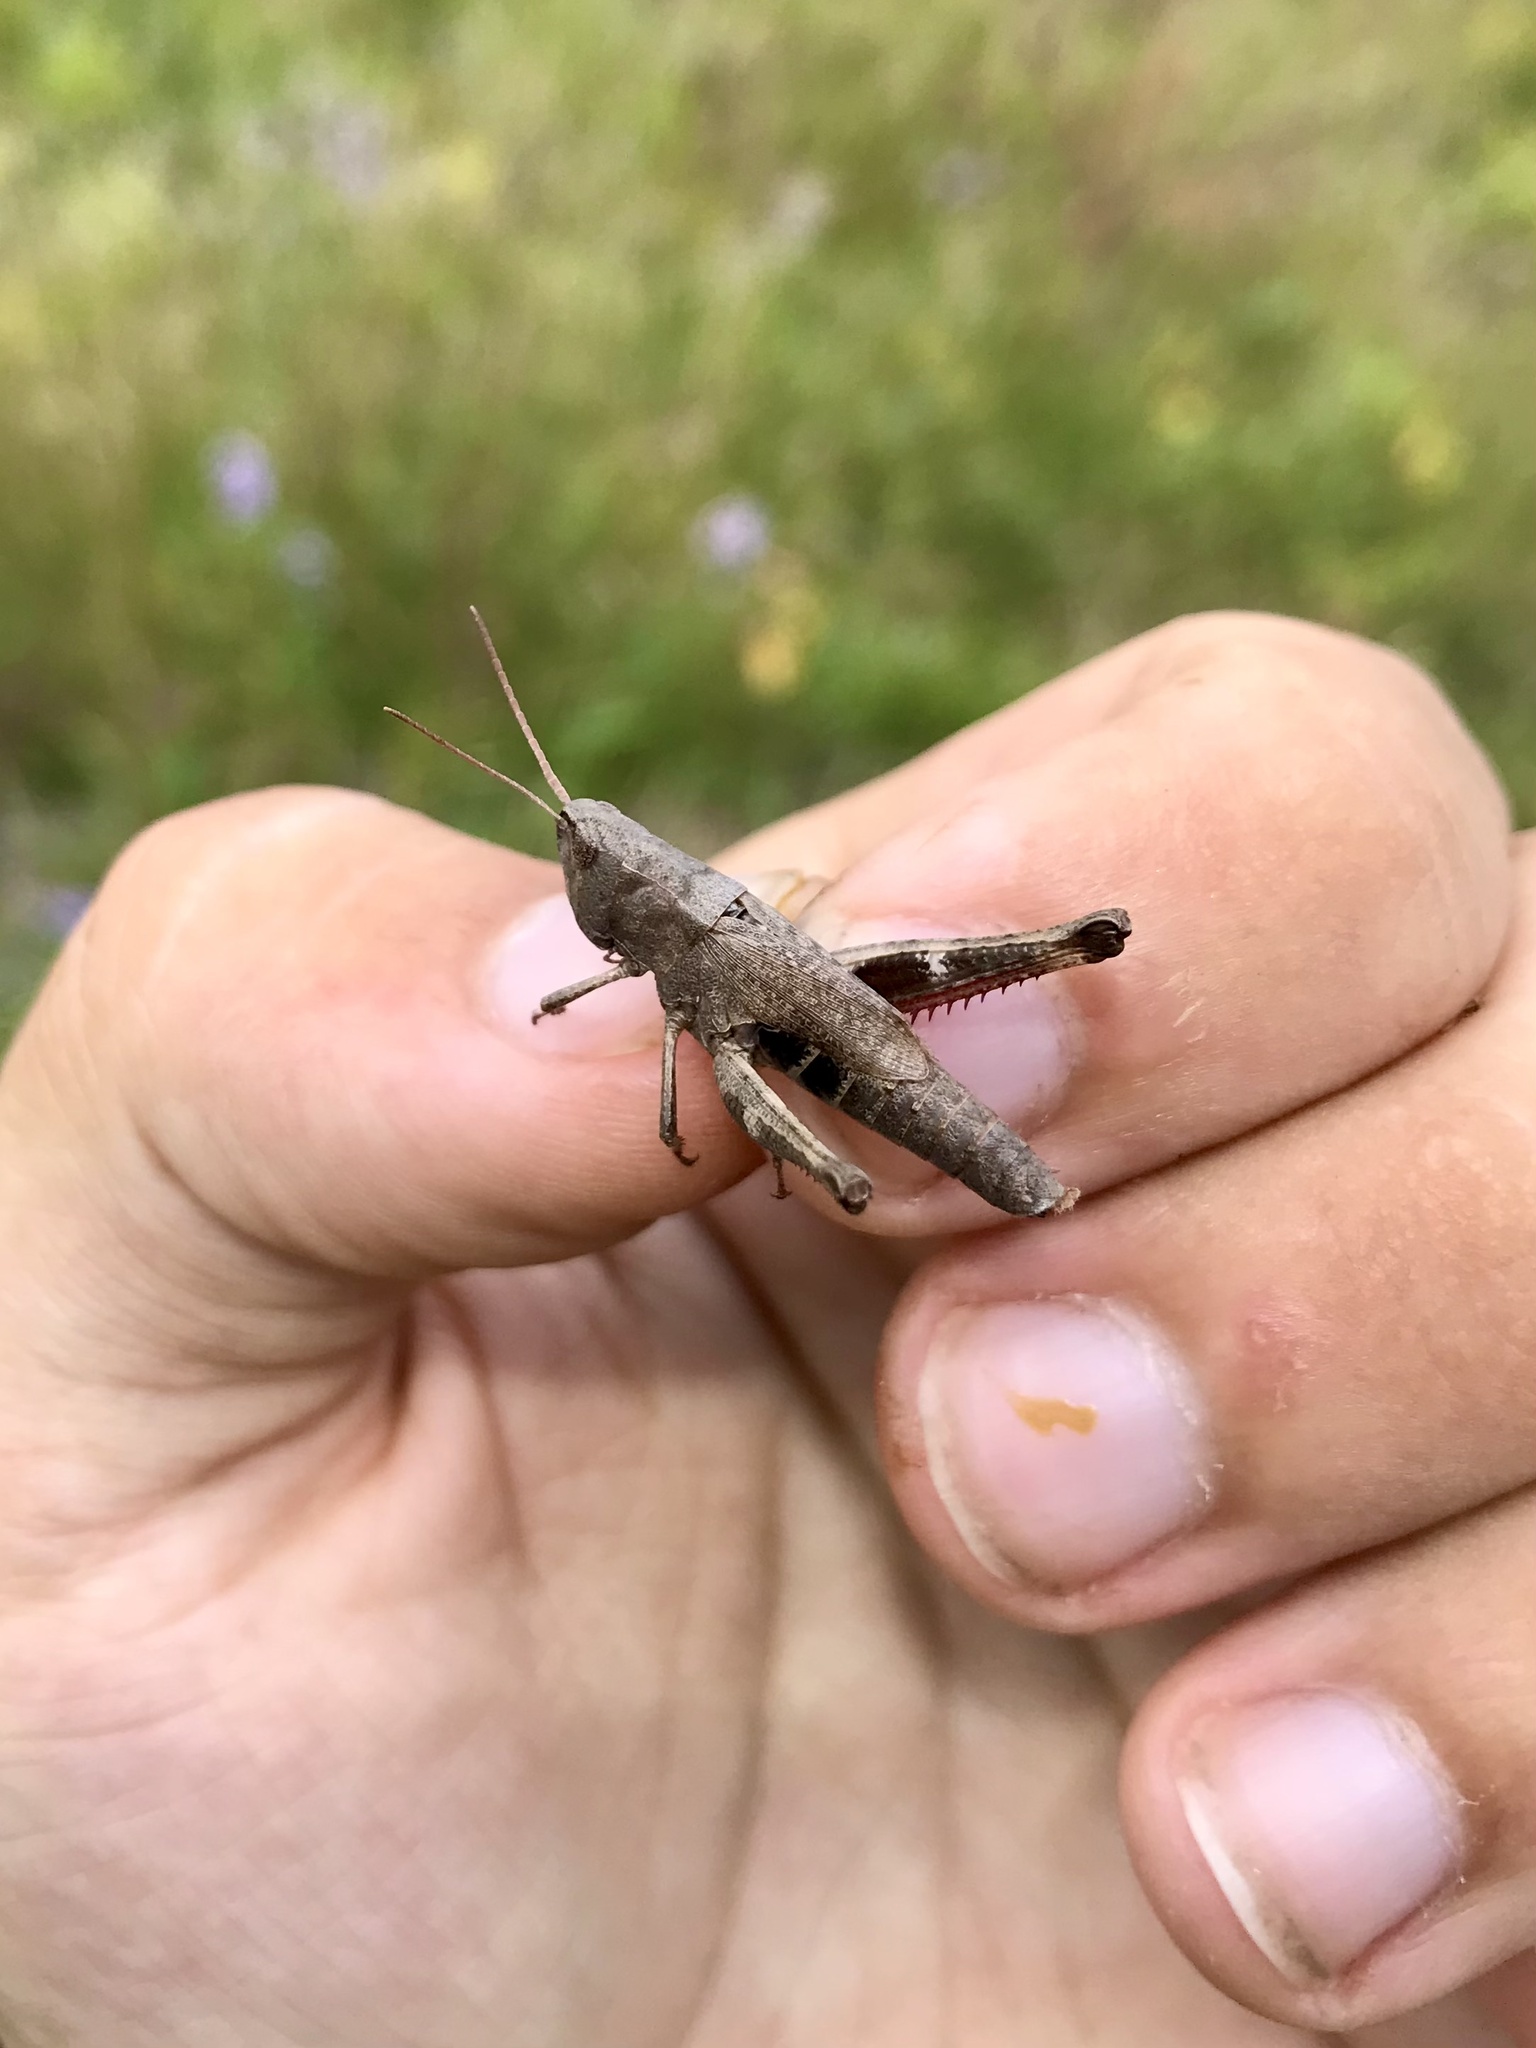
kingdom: Animalia
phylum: Arthropoda
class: Insecta
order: Orthoptera
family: Acrididae
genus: Chloealtis
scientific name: Chloealtis conspersa
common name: Sprinkled broad-winged grasshopper
